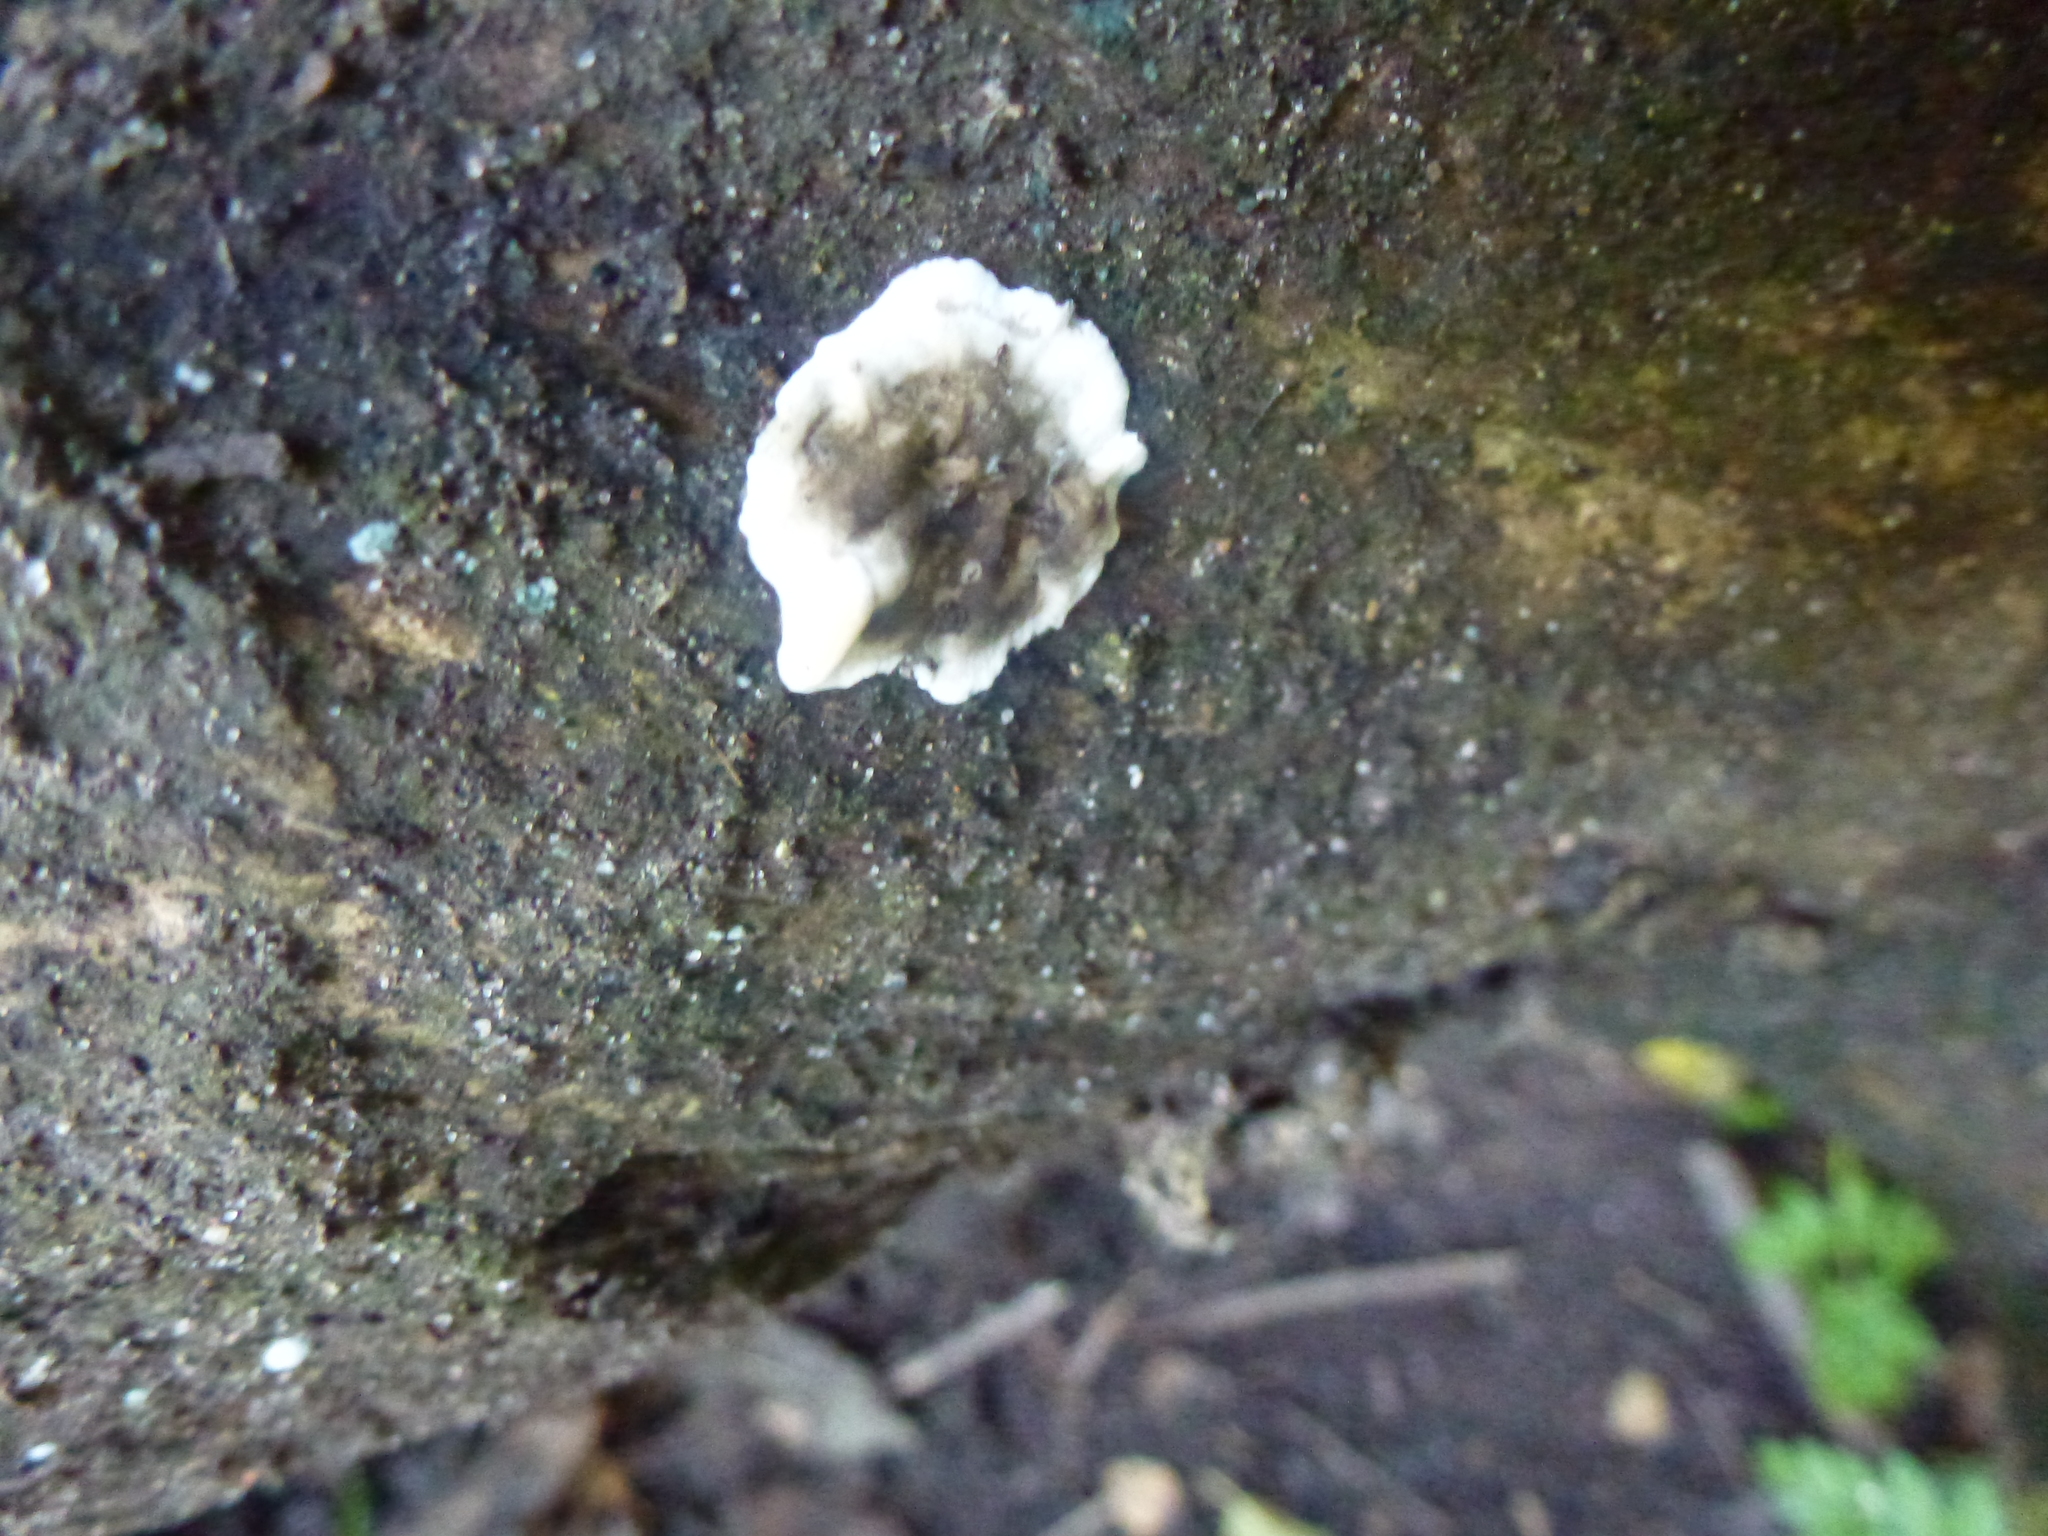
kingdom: Fungi
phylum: Basidiomycota
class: Agaricomycetes
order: Polyporales
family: Phanerochaetaceae
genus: Bjerkandera
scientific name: Bjerkandera adusta
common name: Smoky bracket
